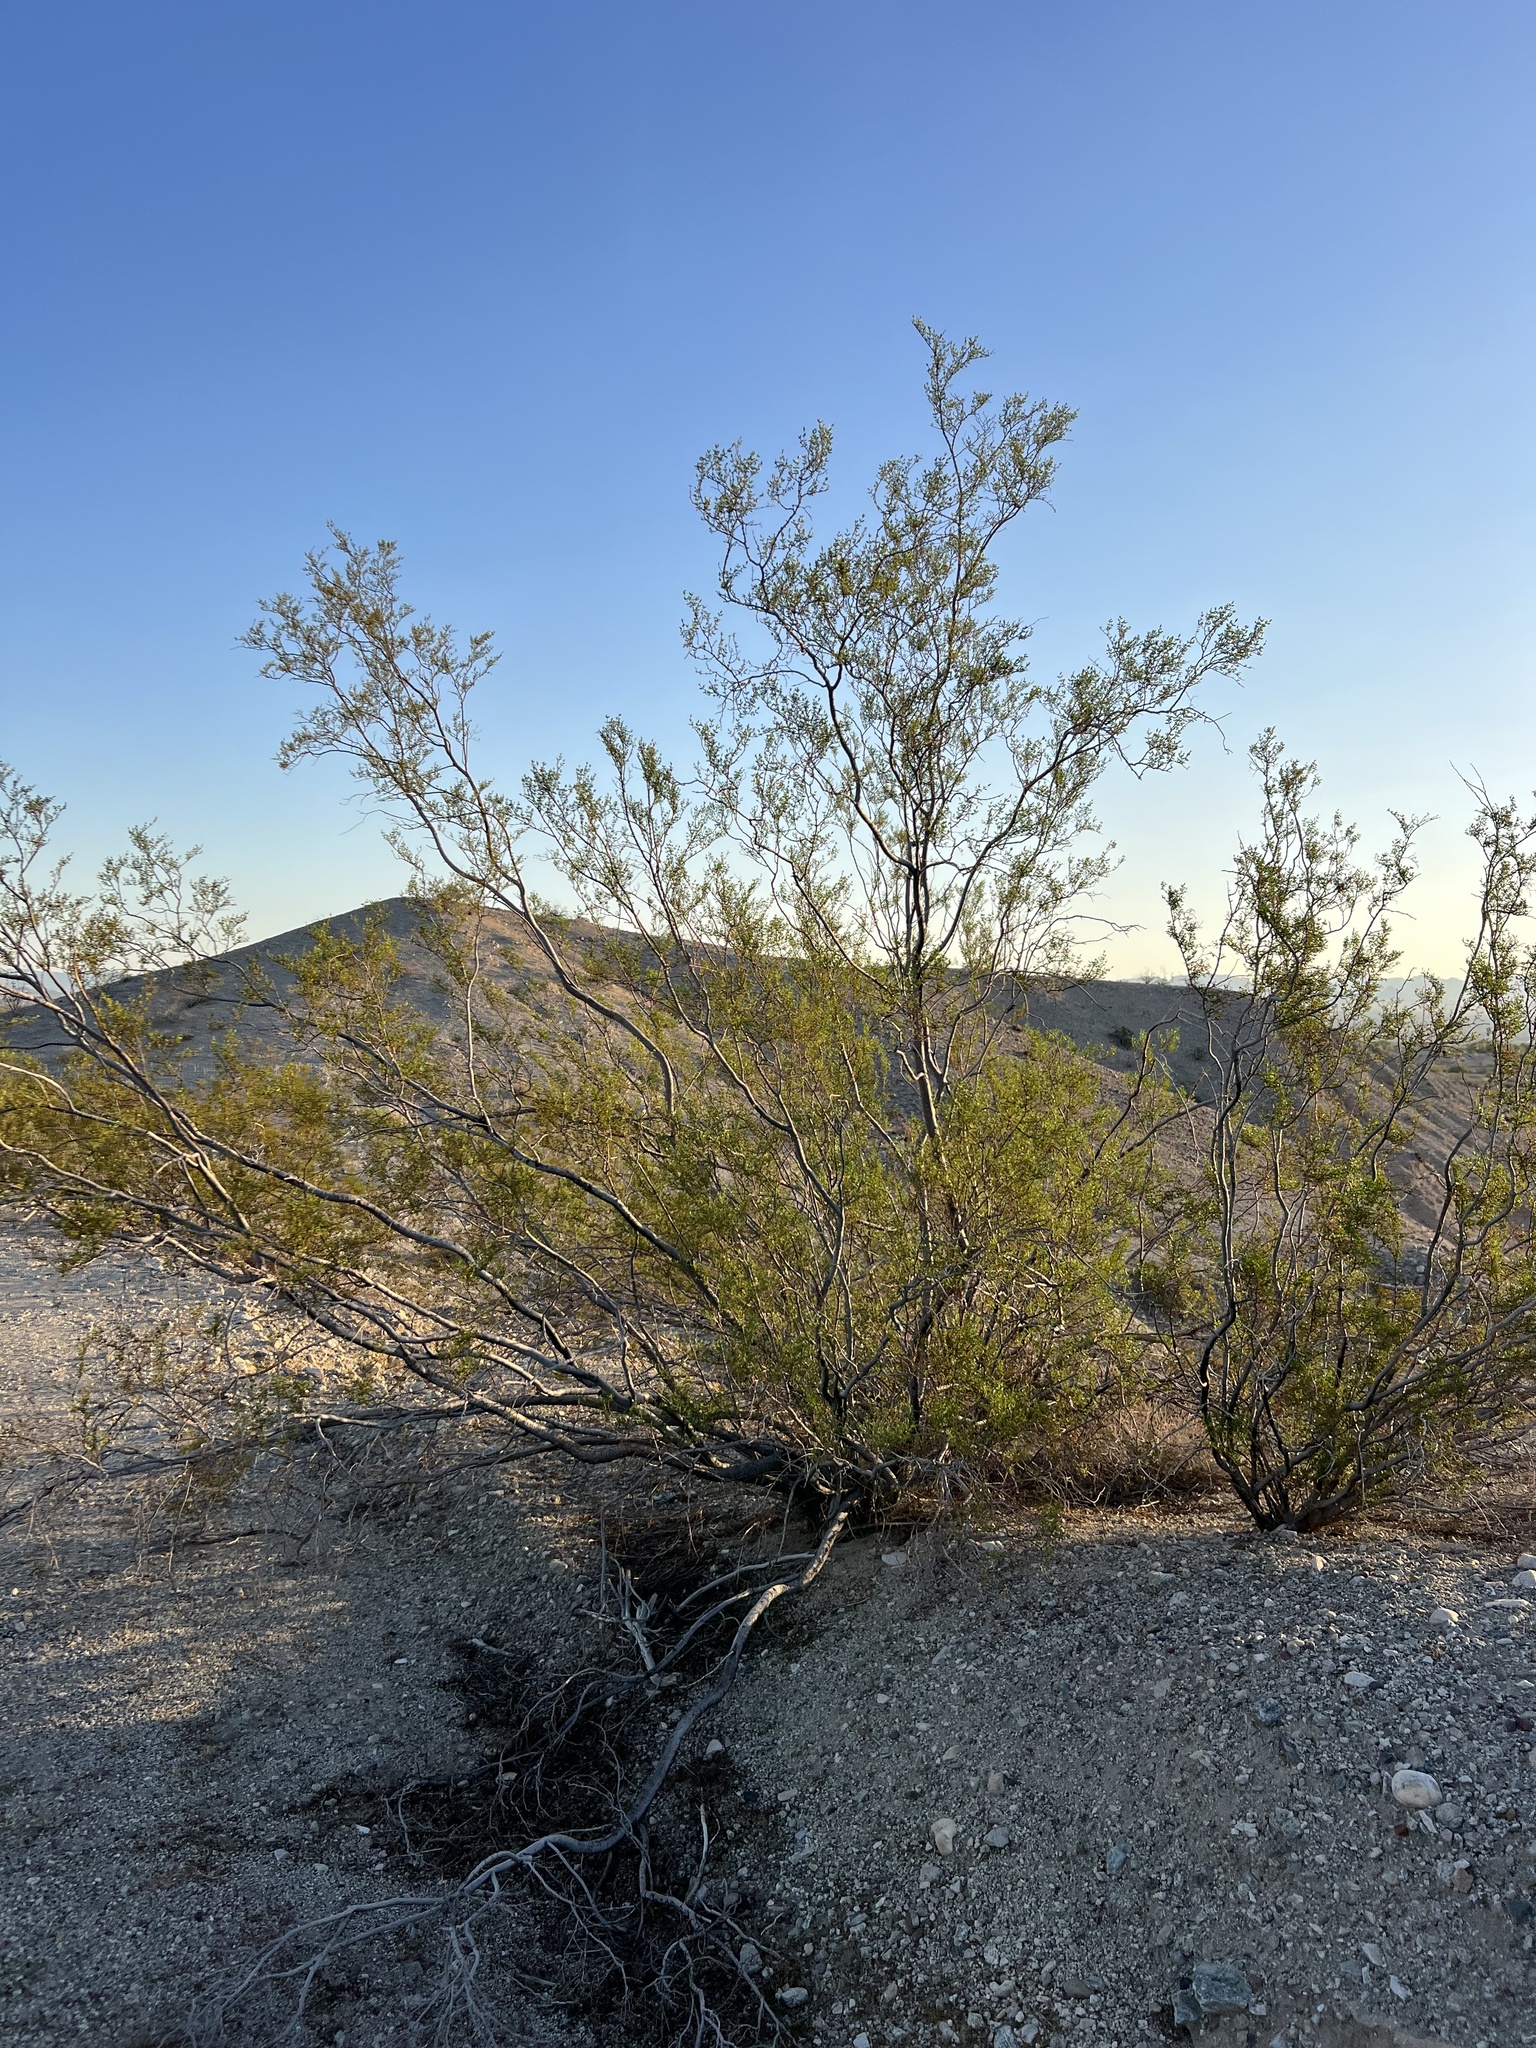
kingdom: Plantae
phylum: Tracheophyta
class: Magnoliopsida
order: Zygophyllales
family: Zygophyllaceae
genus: Larrea
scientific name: Larrea tridentata
